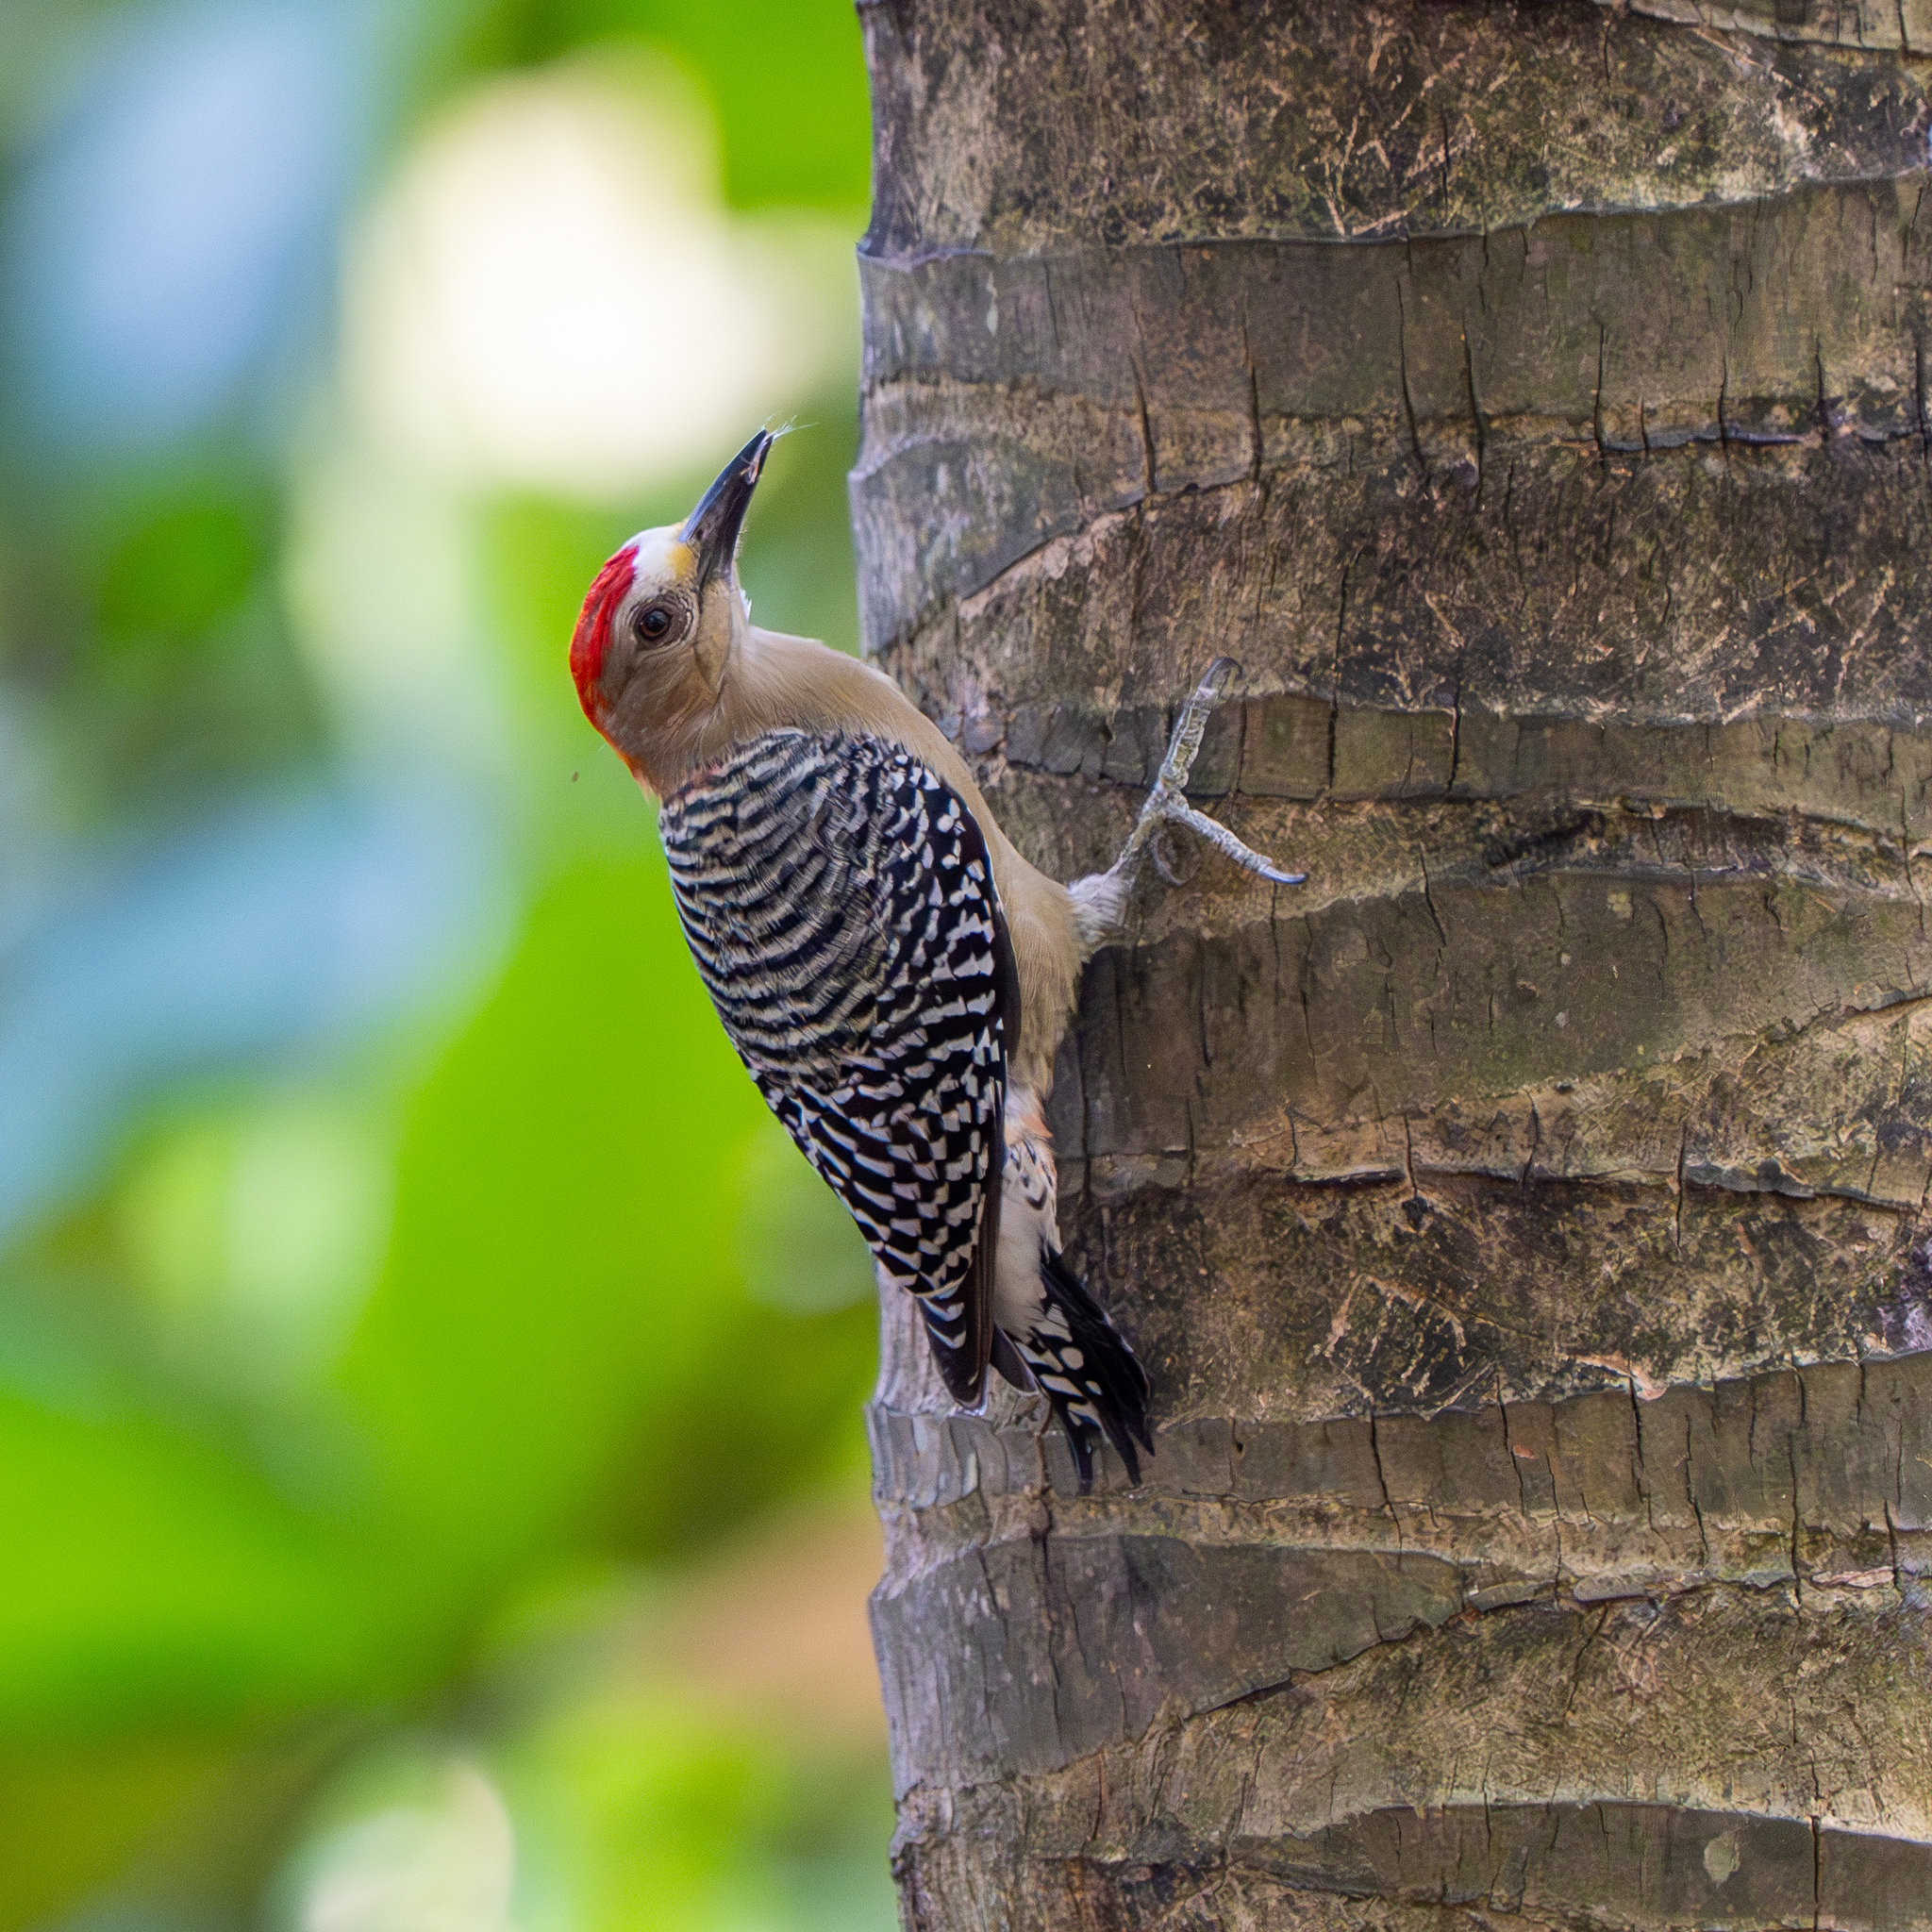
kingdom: Animalia
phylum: Chordata
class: Aves
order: Piciformes
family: Picidae
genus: Melanerpes
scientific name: Melanerpes rubricapillus
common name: Red-crowned woodpecker
